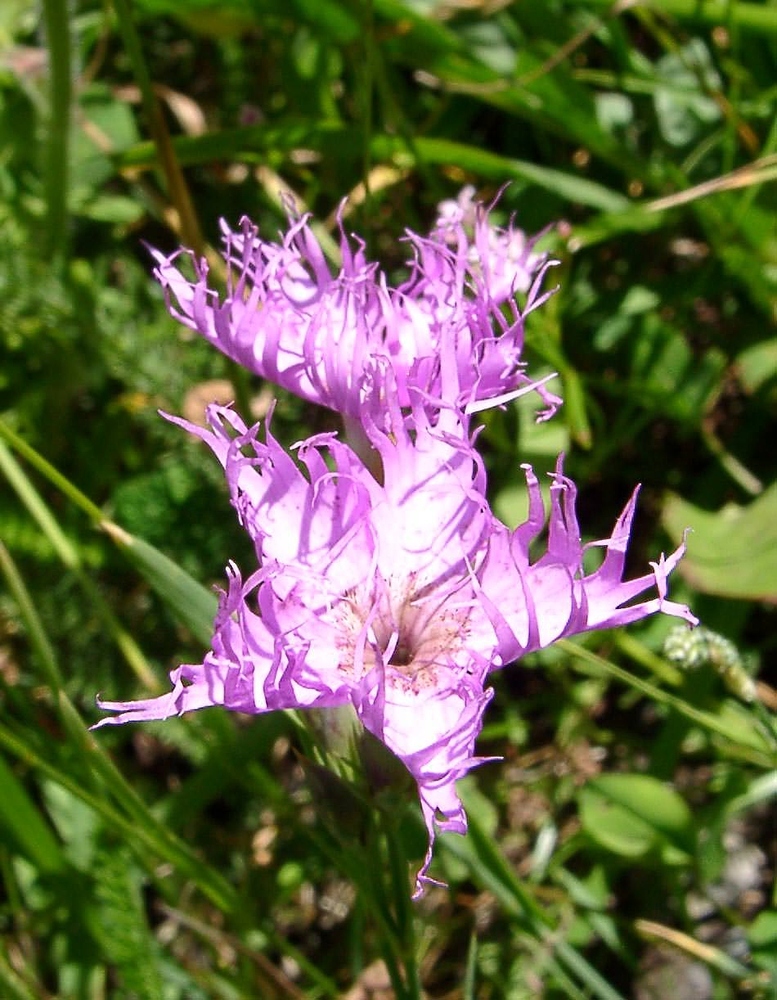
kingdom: Plantae
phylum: Tracheophyta
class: Magnoliopsida
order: Caryophyllales
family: Caryophyllaceae
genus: Dianthus
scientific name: Dianthus hyssopifolius
